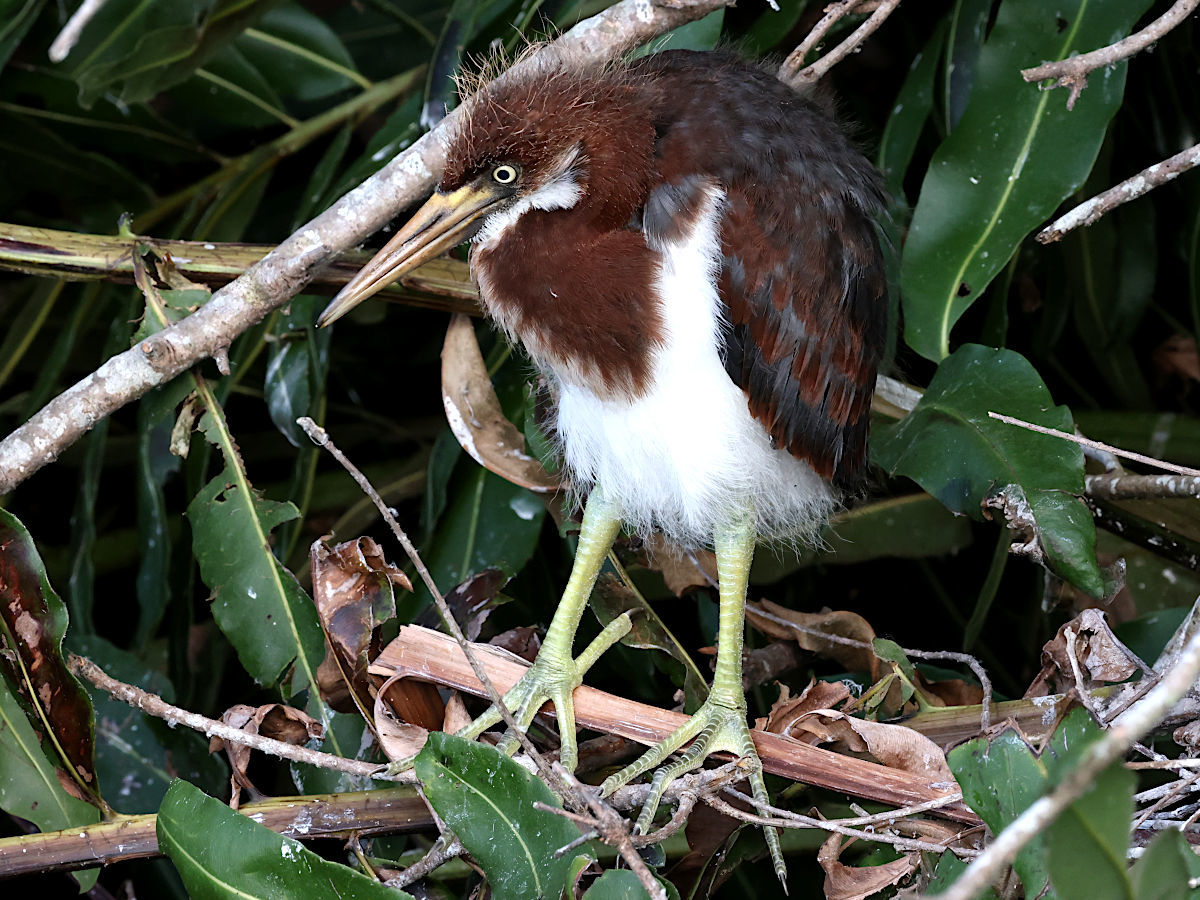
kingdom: Animalia
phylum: Chordata
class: Aves
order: Pelecaniformes
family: Ardeidae
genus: Egretta
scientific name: Egretta tricolor
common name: Tricolored heron
